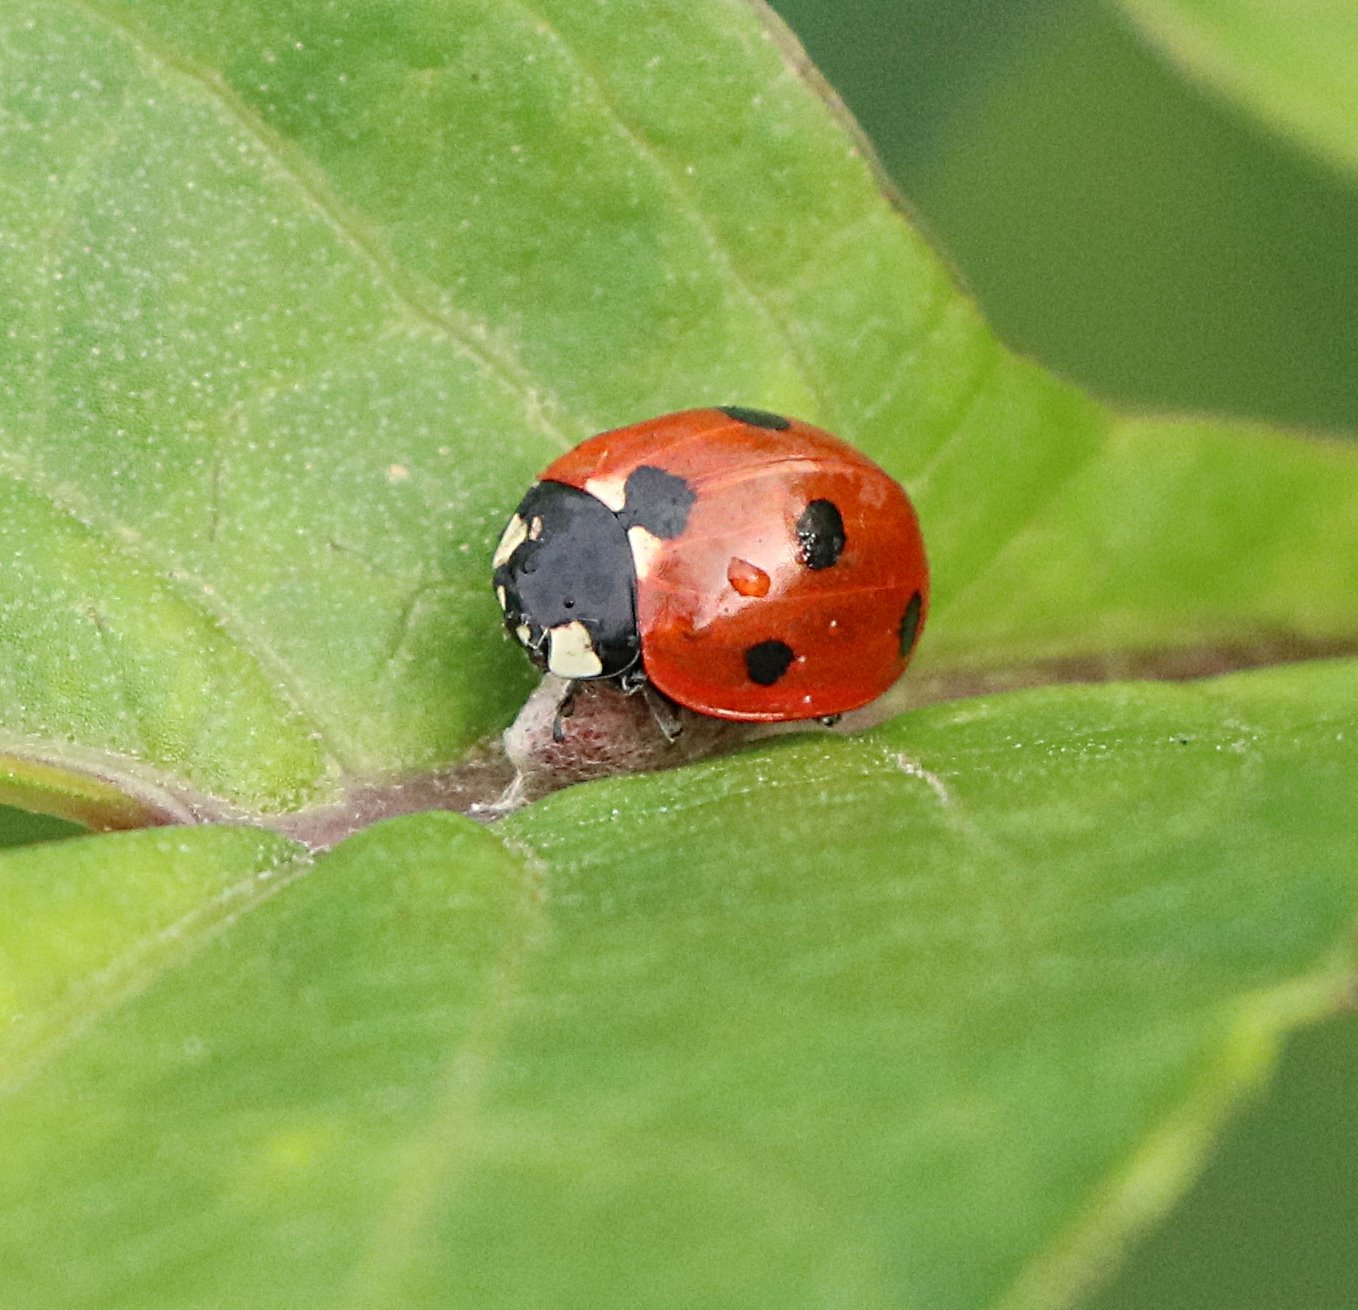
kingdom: Animalia
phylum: Arthropoda
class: Insecta
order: Coleoptera
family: Coccinellidae
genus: Coccinella
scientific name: Coccinella septempunctata
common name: Sevenspotted lady beetle
